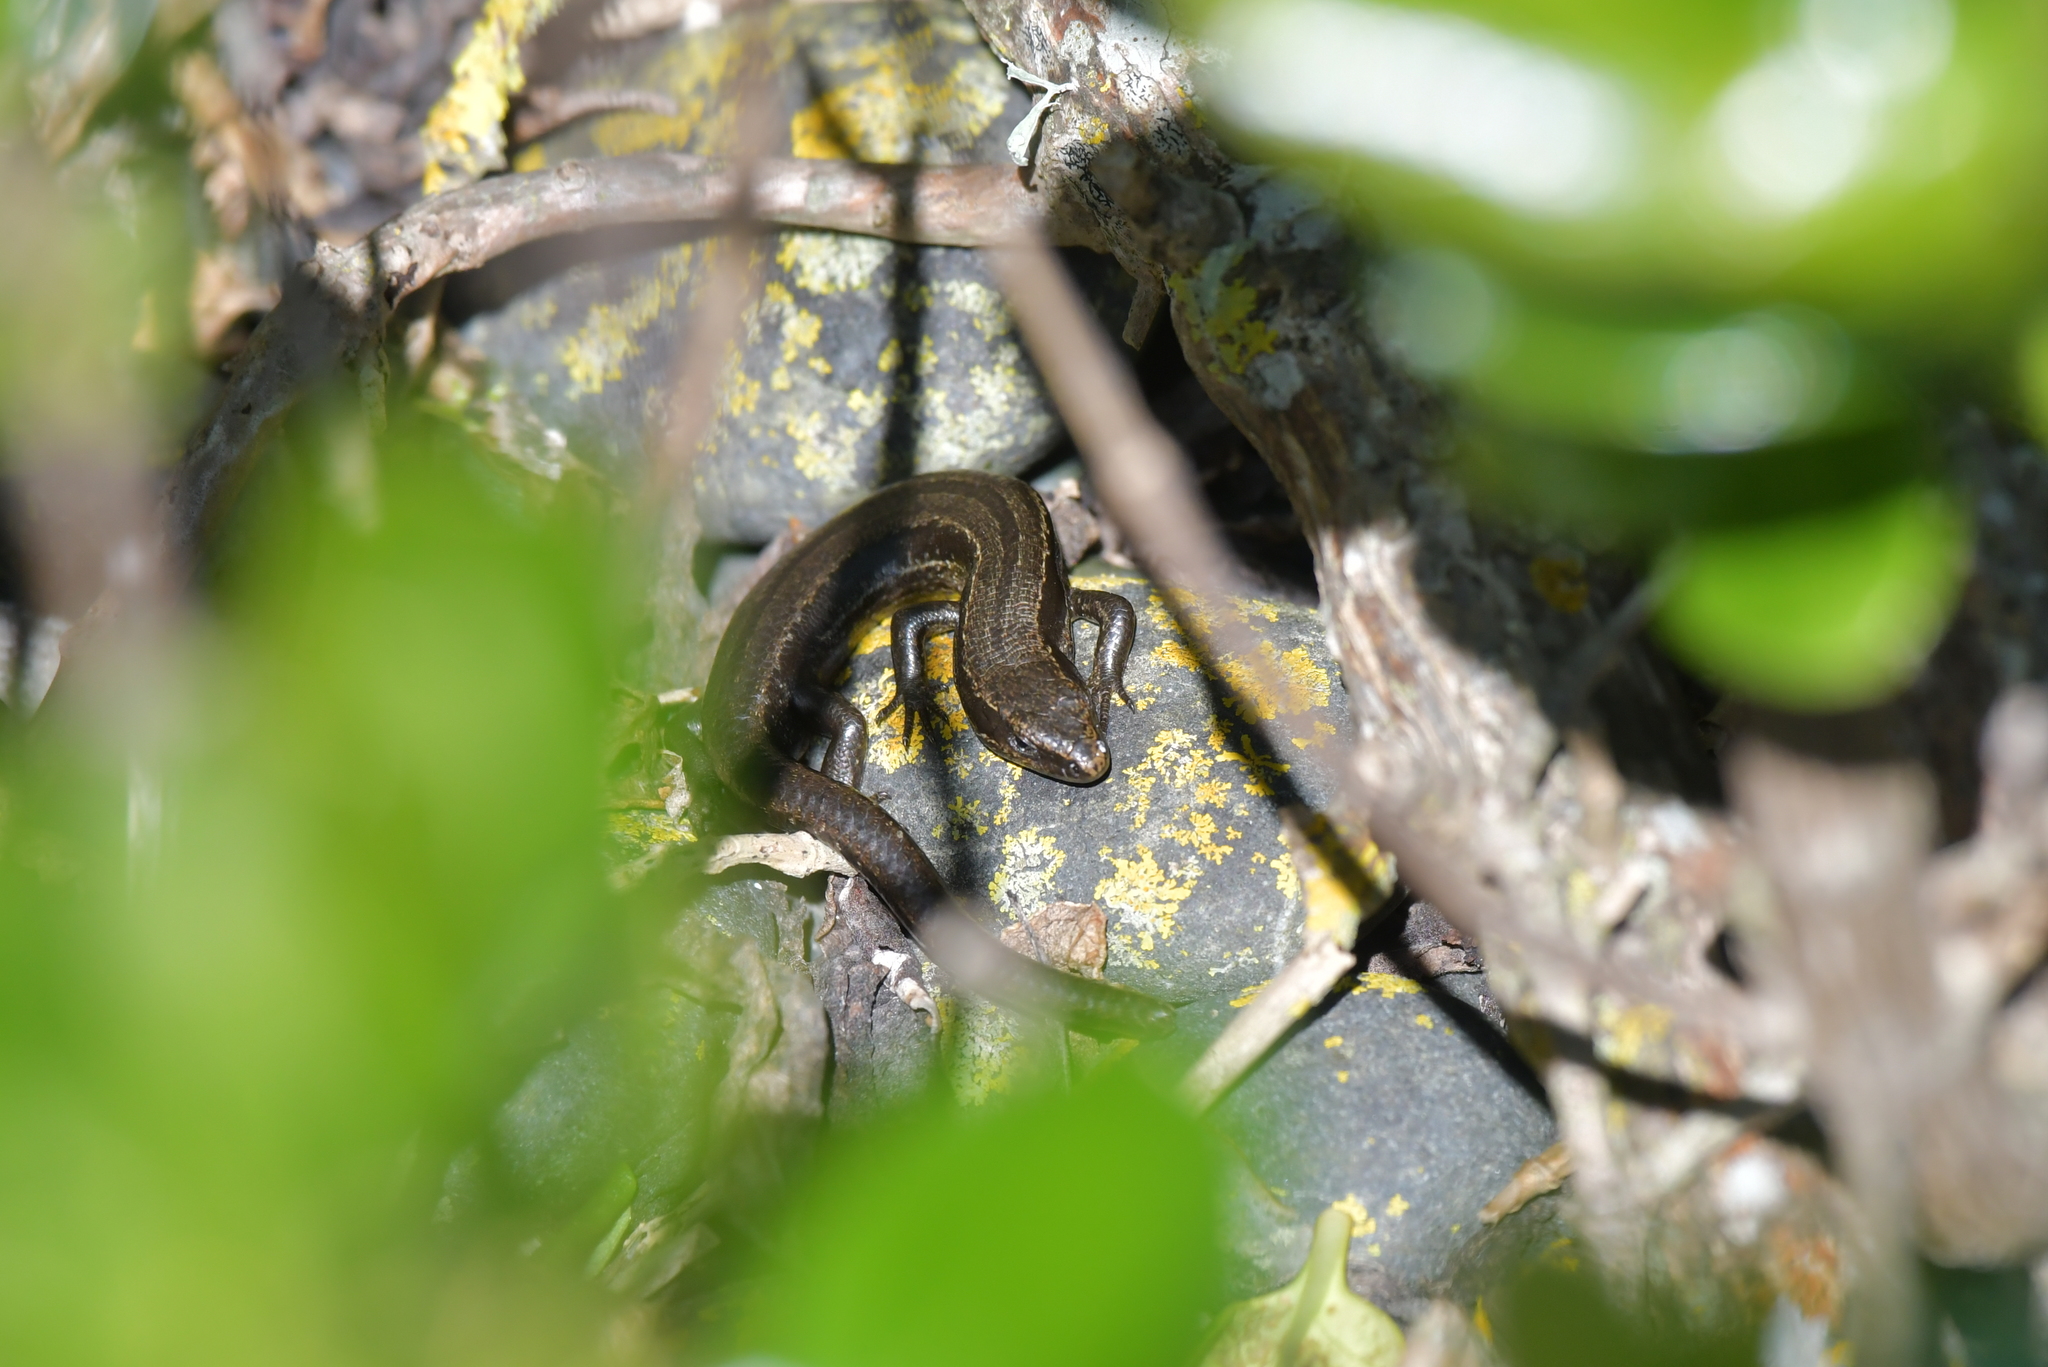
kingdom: Animalia
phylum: Chordata
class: Squamata
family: Scincidae
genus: Oligosoma
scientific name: Oligosoma polychroma
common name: Common new zealand skink
